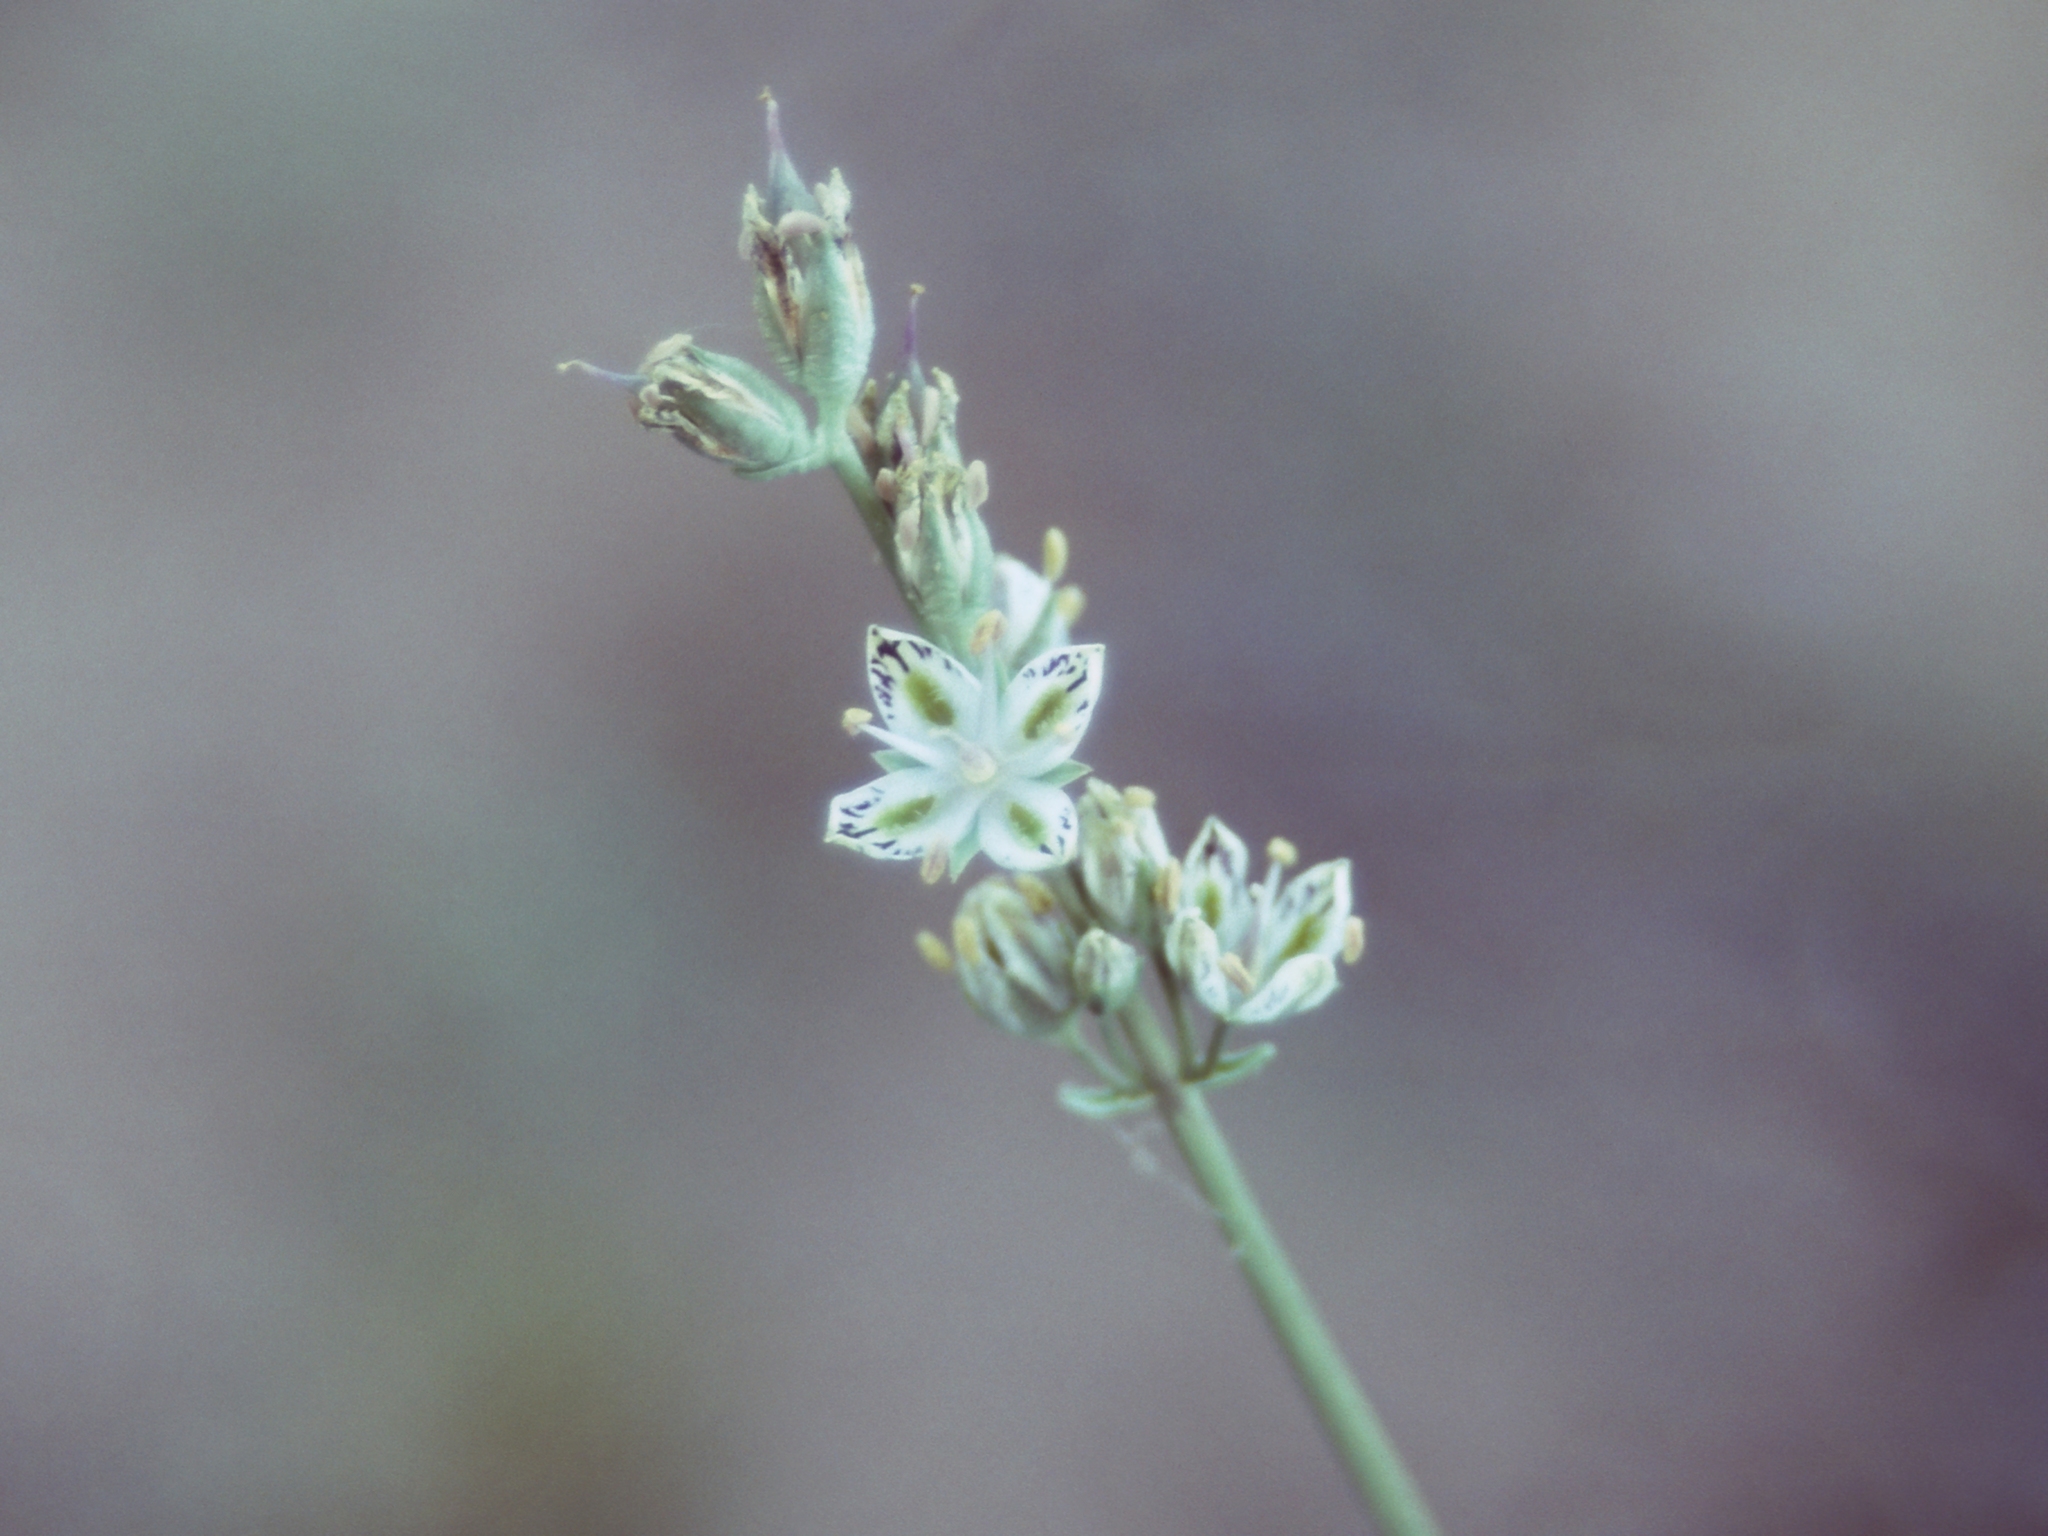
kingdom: Plantae
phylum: Tracheophyta
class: Magnoliopsida
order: Gentianales
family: Gentianaceae
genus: Frasera
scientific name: Frasera albicaulis
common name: Cusick's frasera
